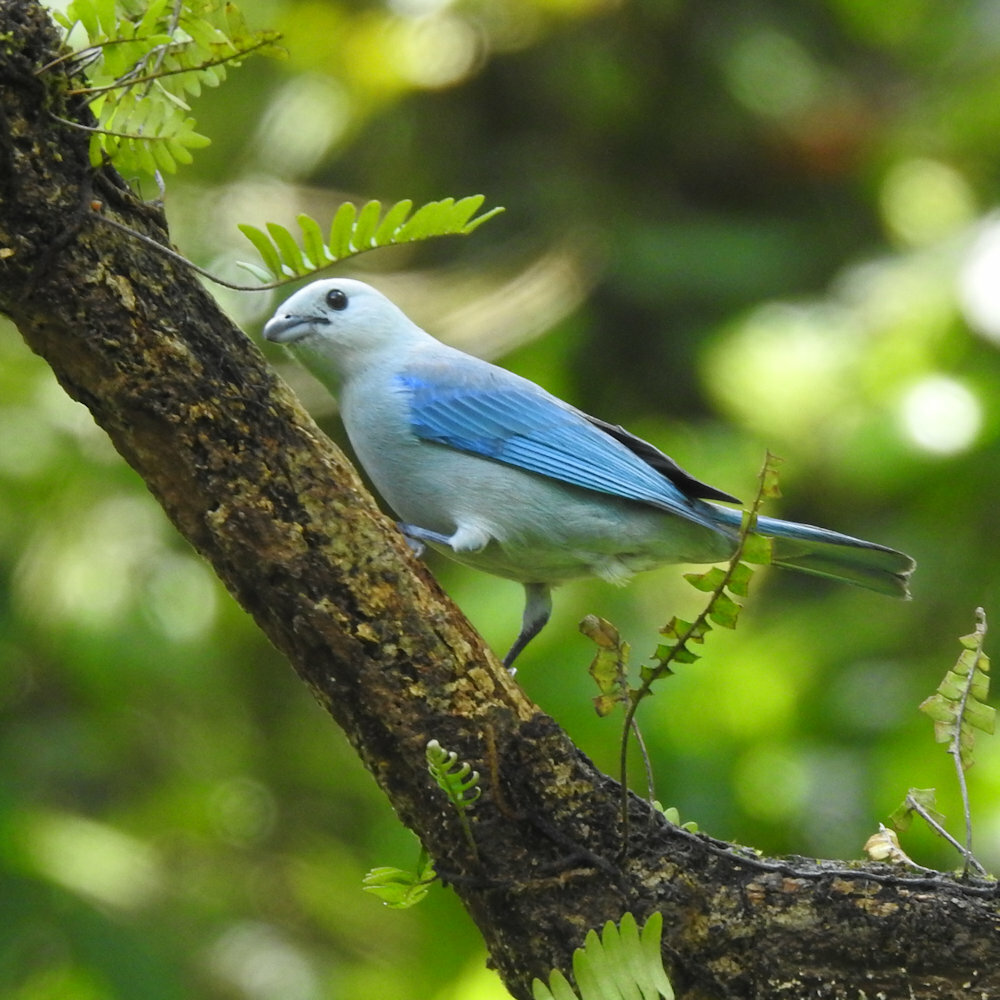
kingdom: Animalia
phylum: Chordata
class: Aves
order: Passeriformes
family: Thraupidae
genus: Thraupis
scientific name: Thraupis episcopus
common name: Blue-grey tanager
